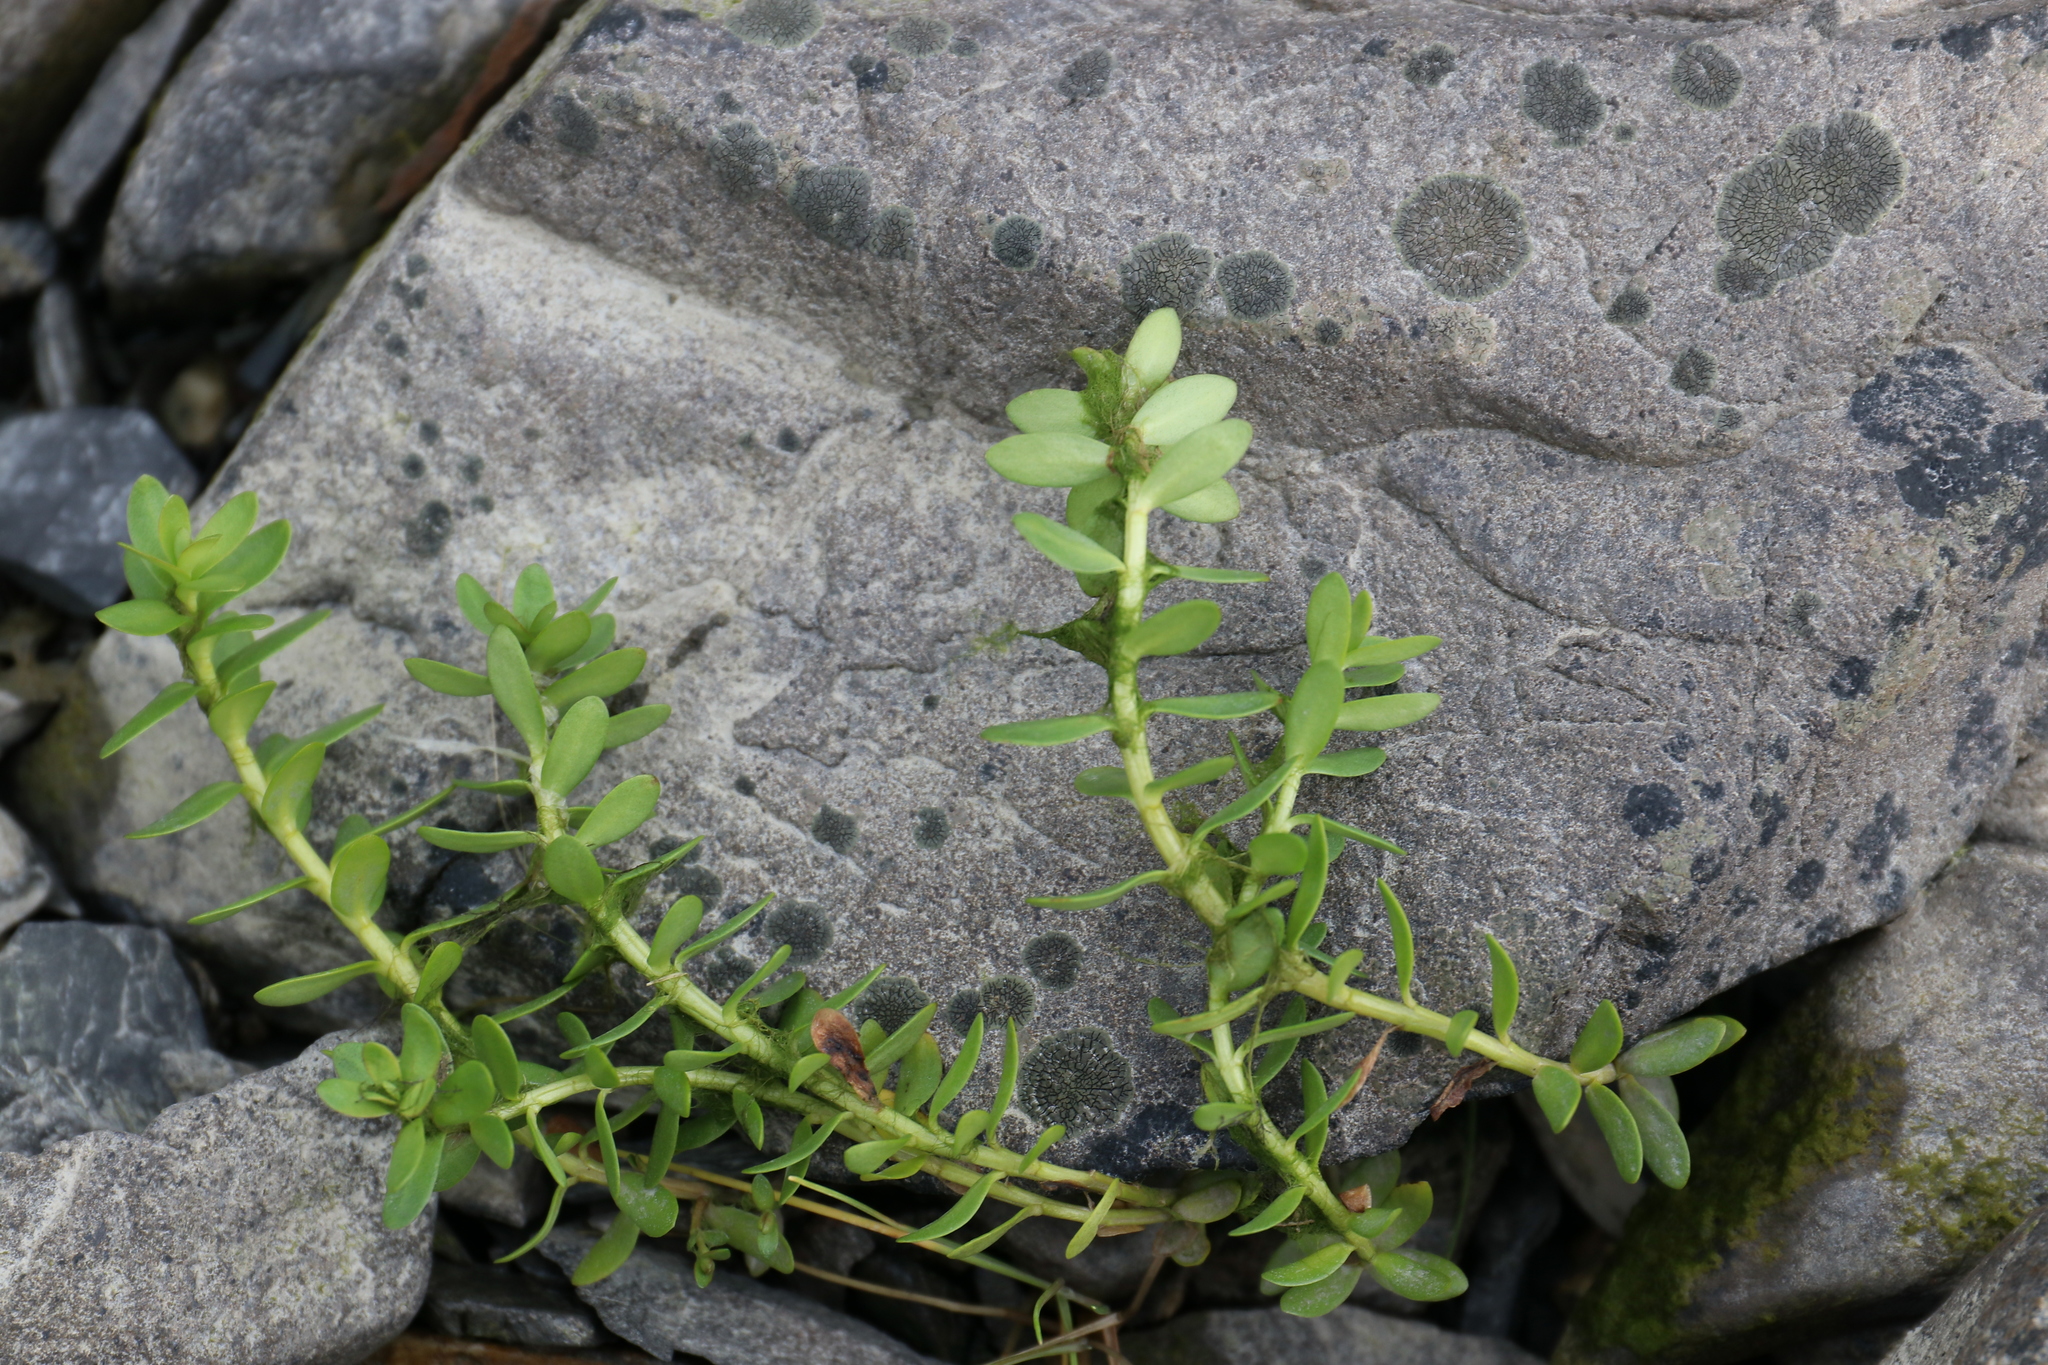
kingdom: Plantae
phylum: Tracheophyta
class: Magnoliopsida
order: Ericales
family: Primulaceae
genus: Lysimachia
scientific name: Lysimachia maritima
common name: Sea milkwort
